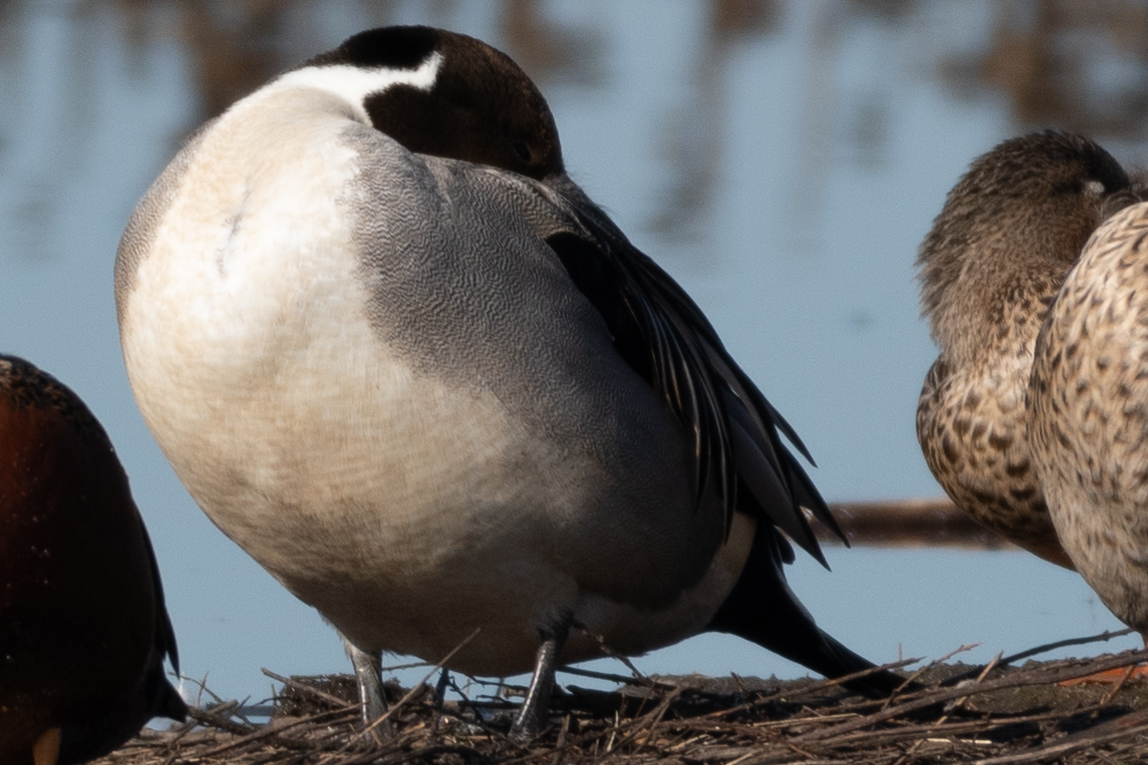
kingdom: Animalia
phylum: Chordata
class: Aves
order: Anseriformes
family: Anatidae
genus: Anas
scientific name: Anas acuta
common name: Northern pintail
